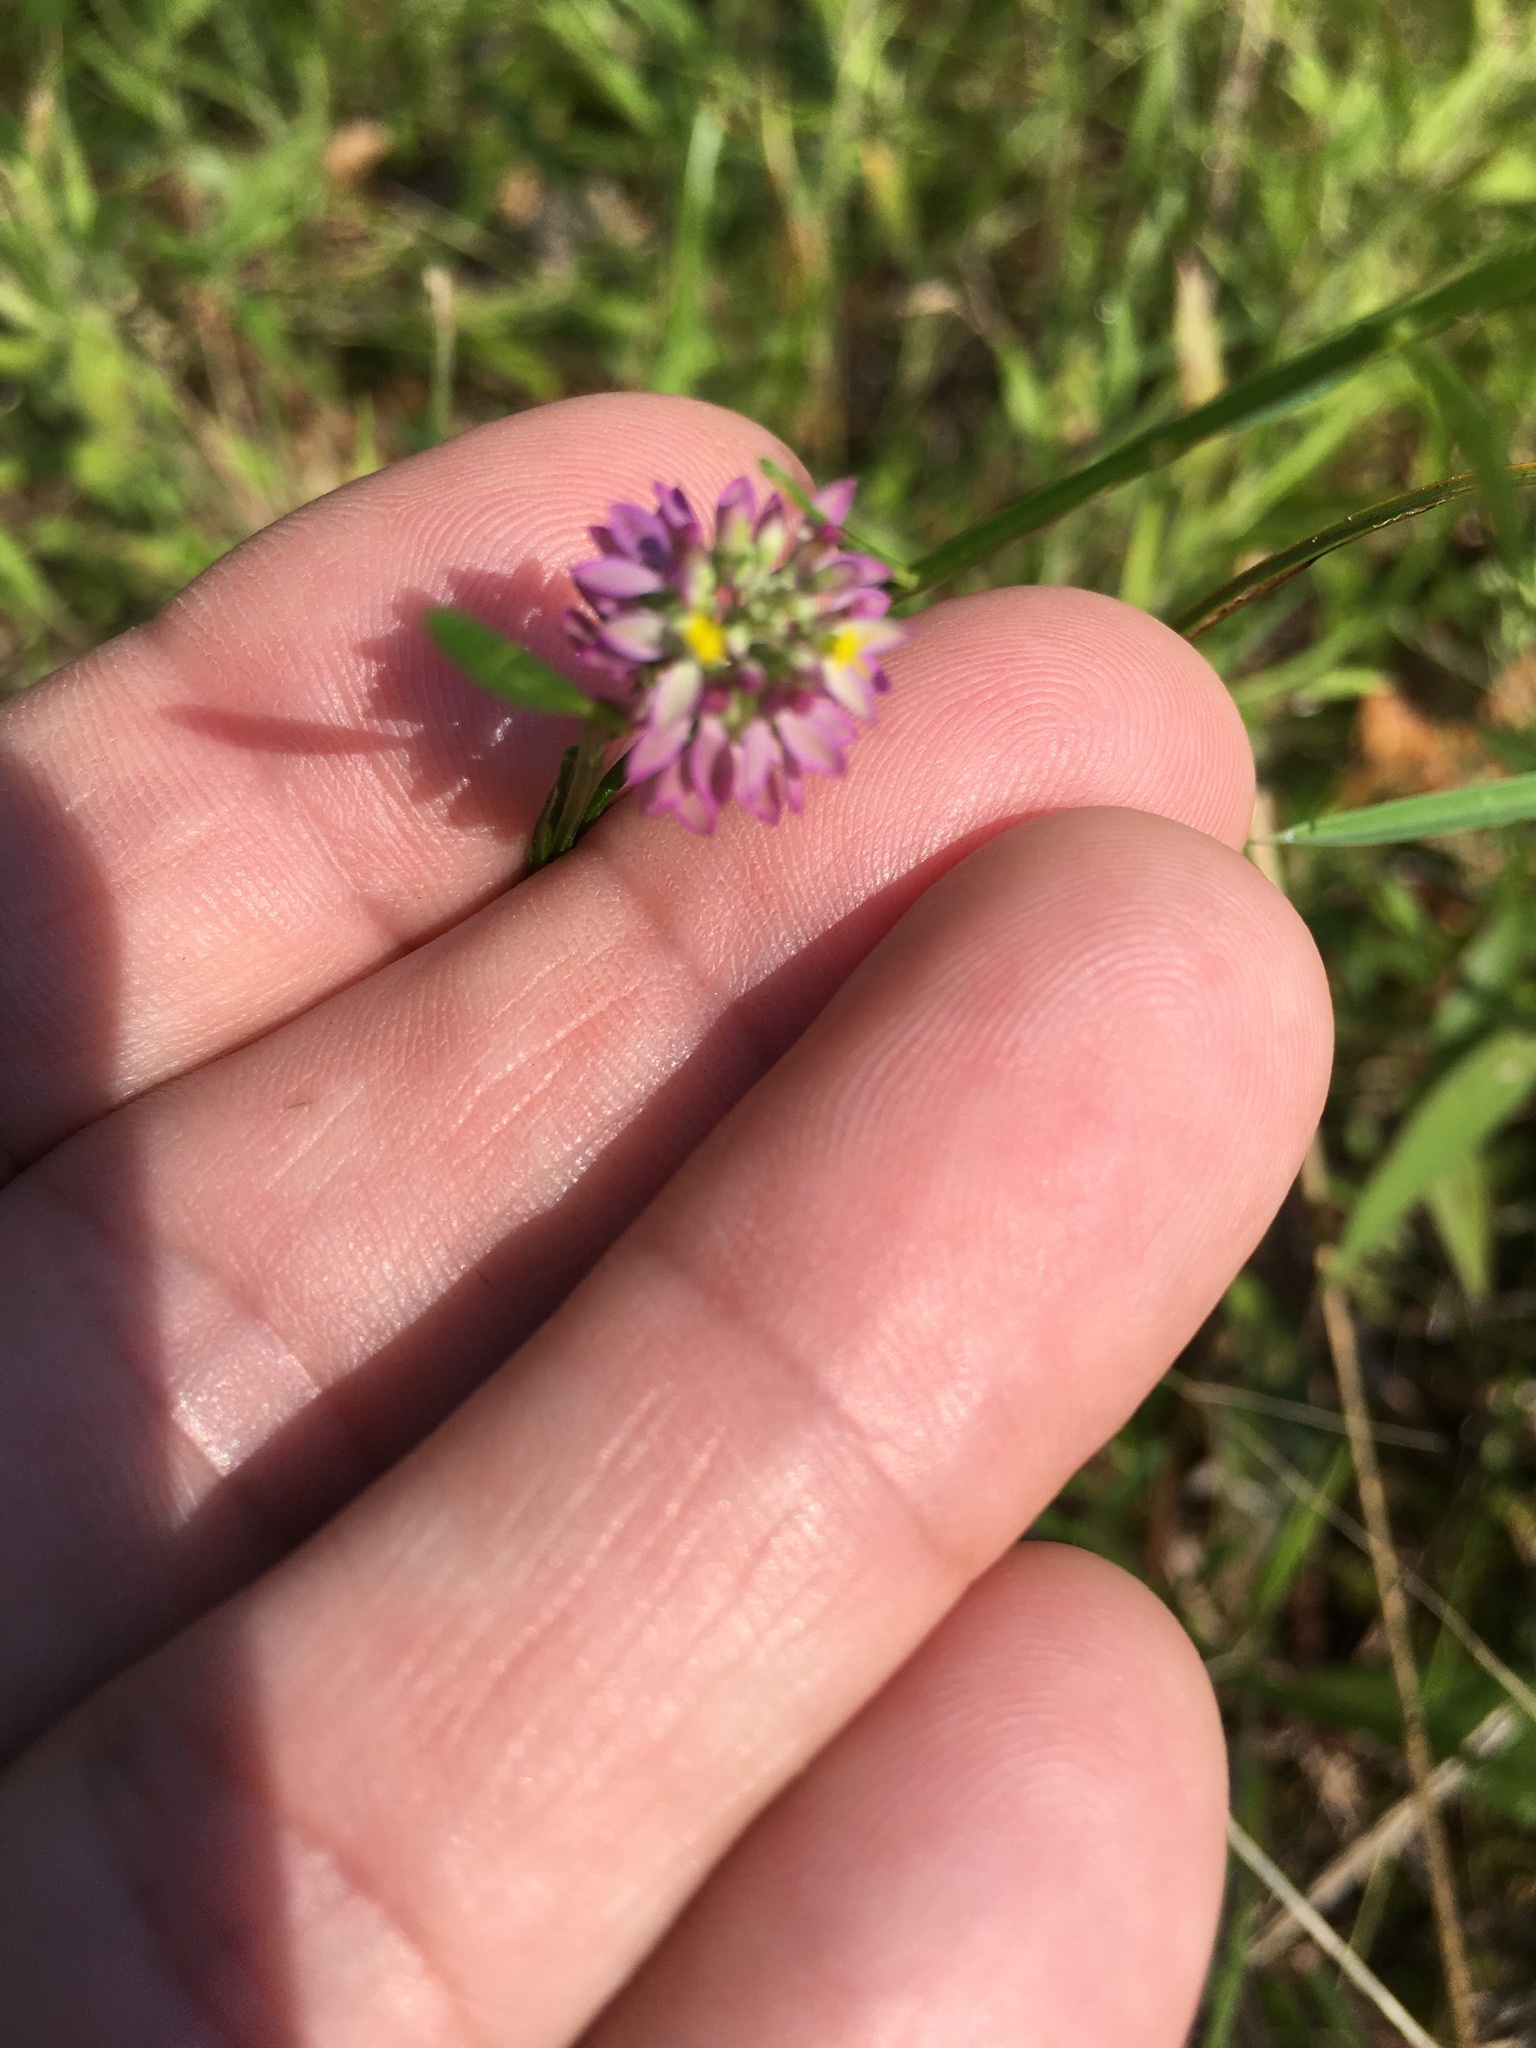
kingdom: Plantae
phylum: Tracheophyta
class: Magnoliopsida
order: Fabales
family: Polygalaceae
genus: Polygala
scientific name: Polygala curtissii
